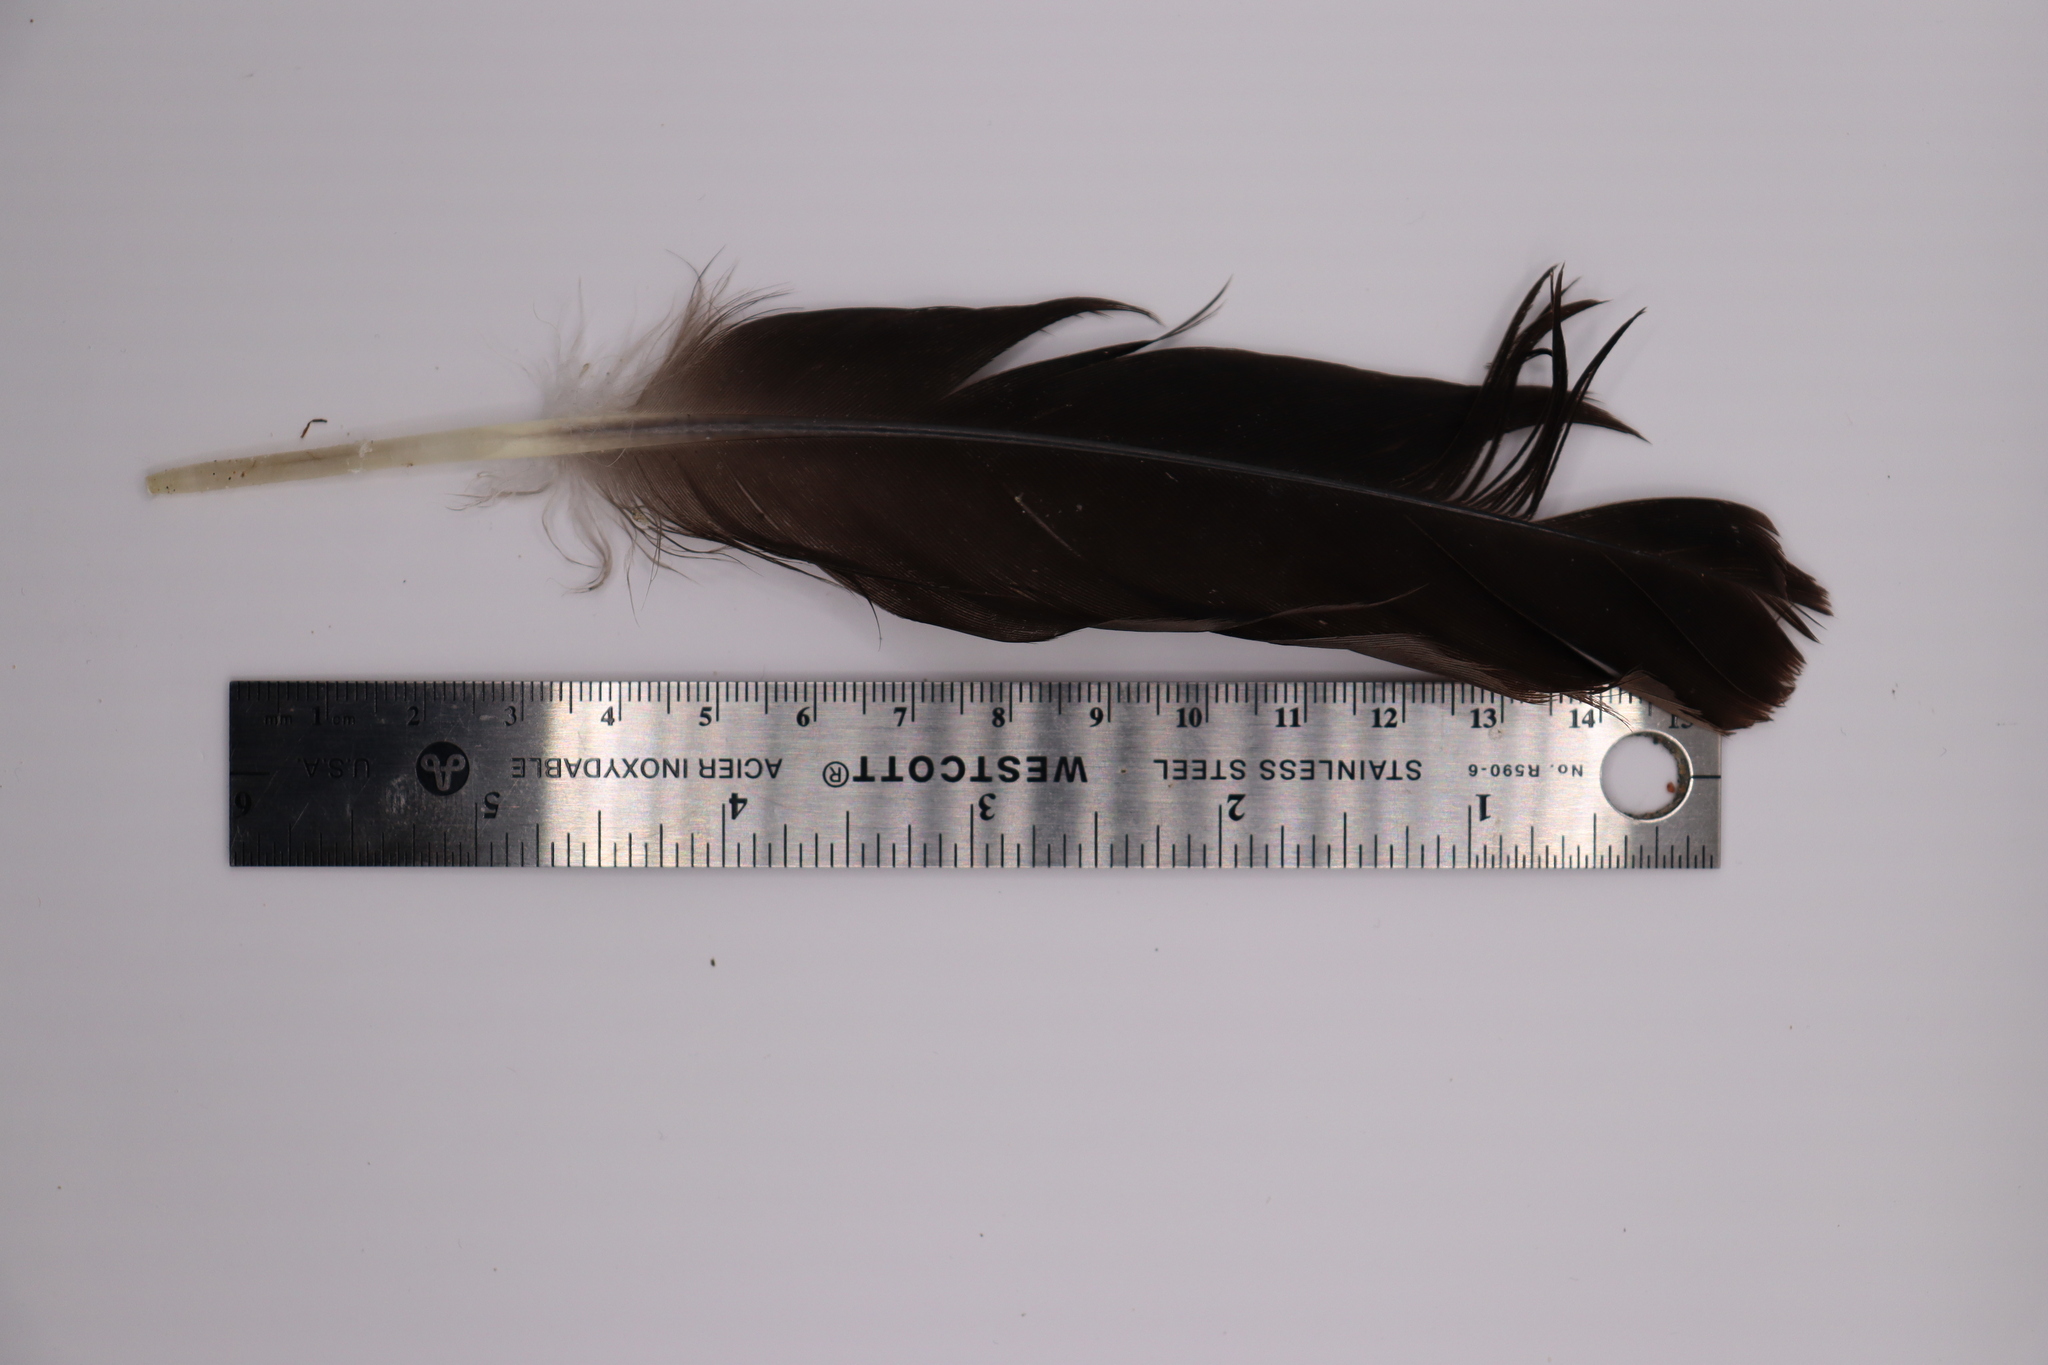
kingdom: Animalia
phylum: Chordata
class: Aves
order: Anseriformes
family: Anatidae
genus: Branta
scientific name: Branta canadensis
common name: Canada goose
